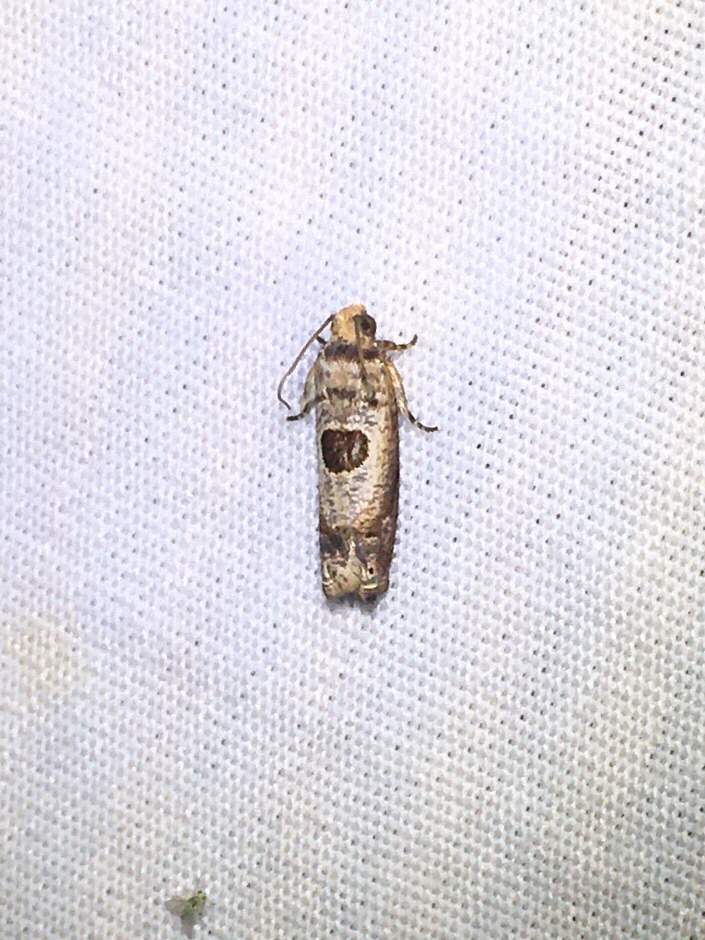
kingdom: Animalia
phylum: Arthropoda
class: Insecta
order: Lepidoptera
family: Tortricidae
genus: Episimus
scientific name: Episimus transferrana
